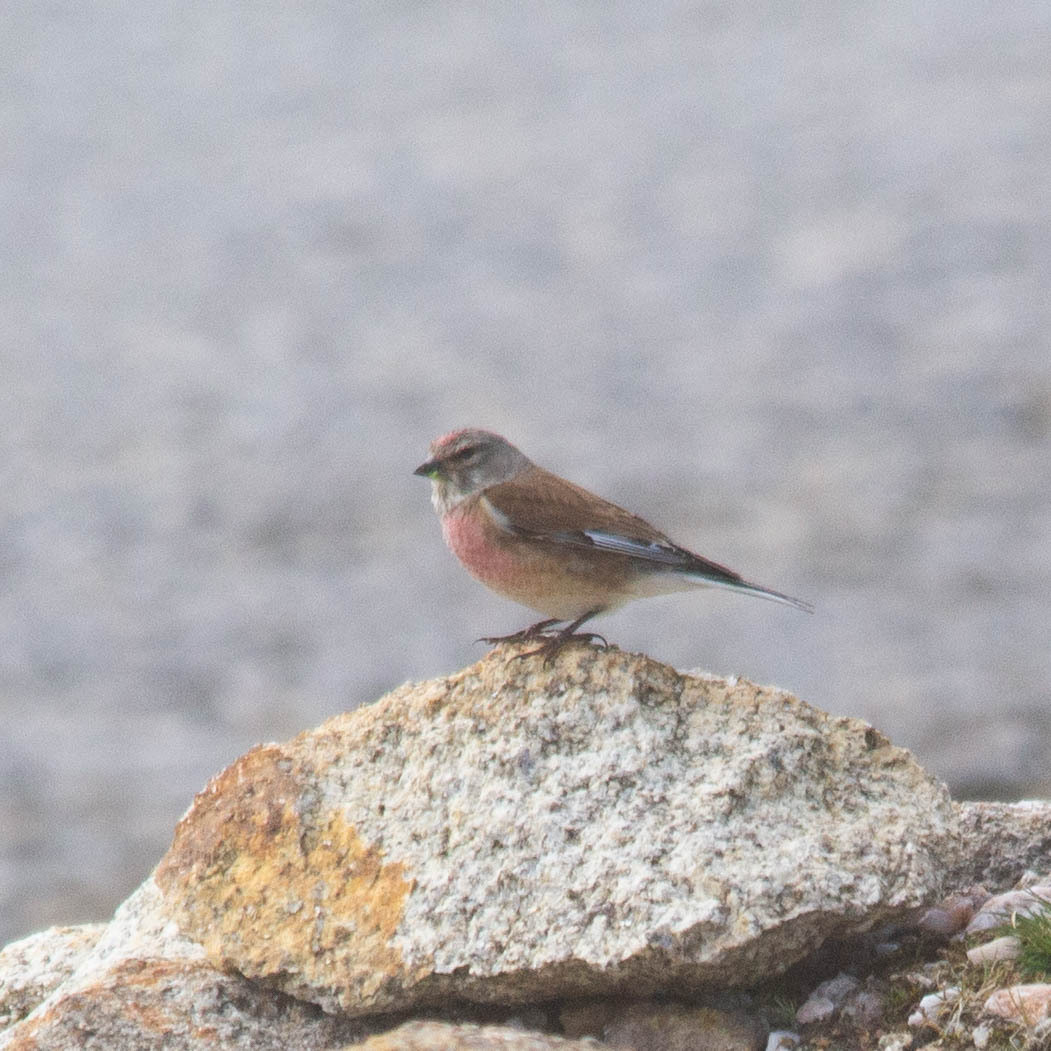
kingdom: Animalia
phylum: Chordata
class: Aves
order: Passeriformes
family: Fringillidae
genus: Linaria
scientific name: Linaria cannabina
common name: Common linnet
